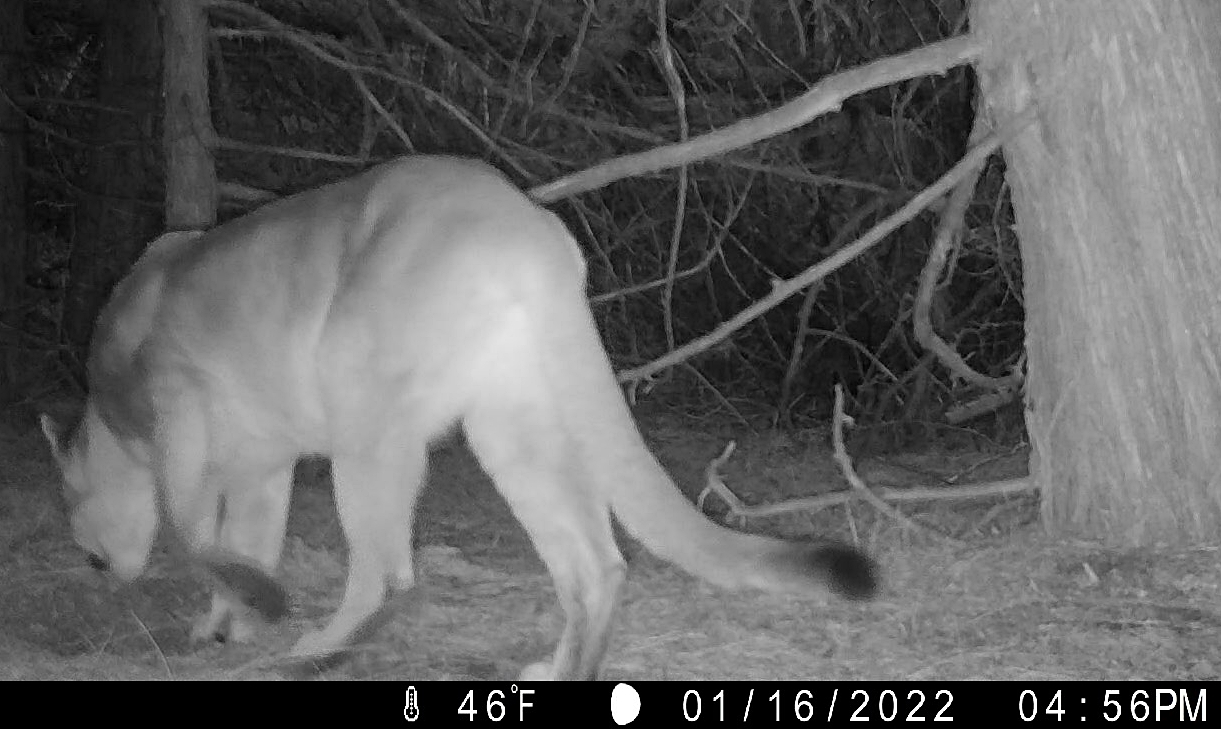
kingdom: Animalia
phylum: Chordata
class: Mammalia
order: Carnivora
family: Felidae
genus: Puma
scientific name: Puma concolor
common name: Puma
